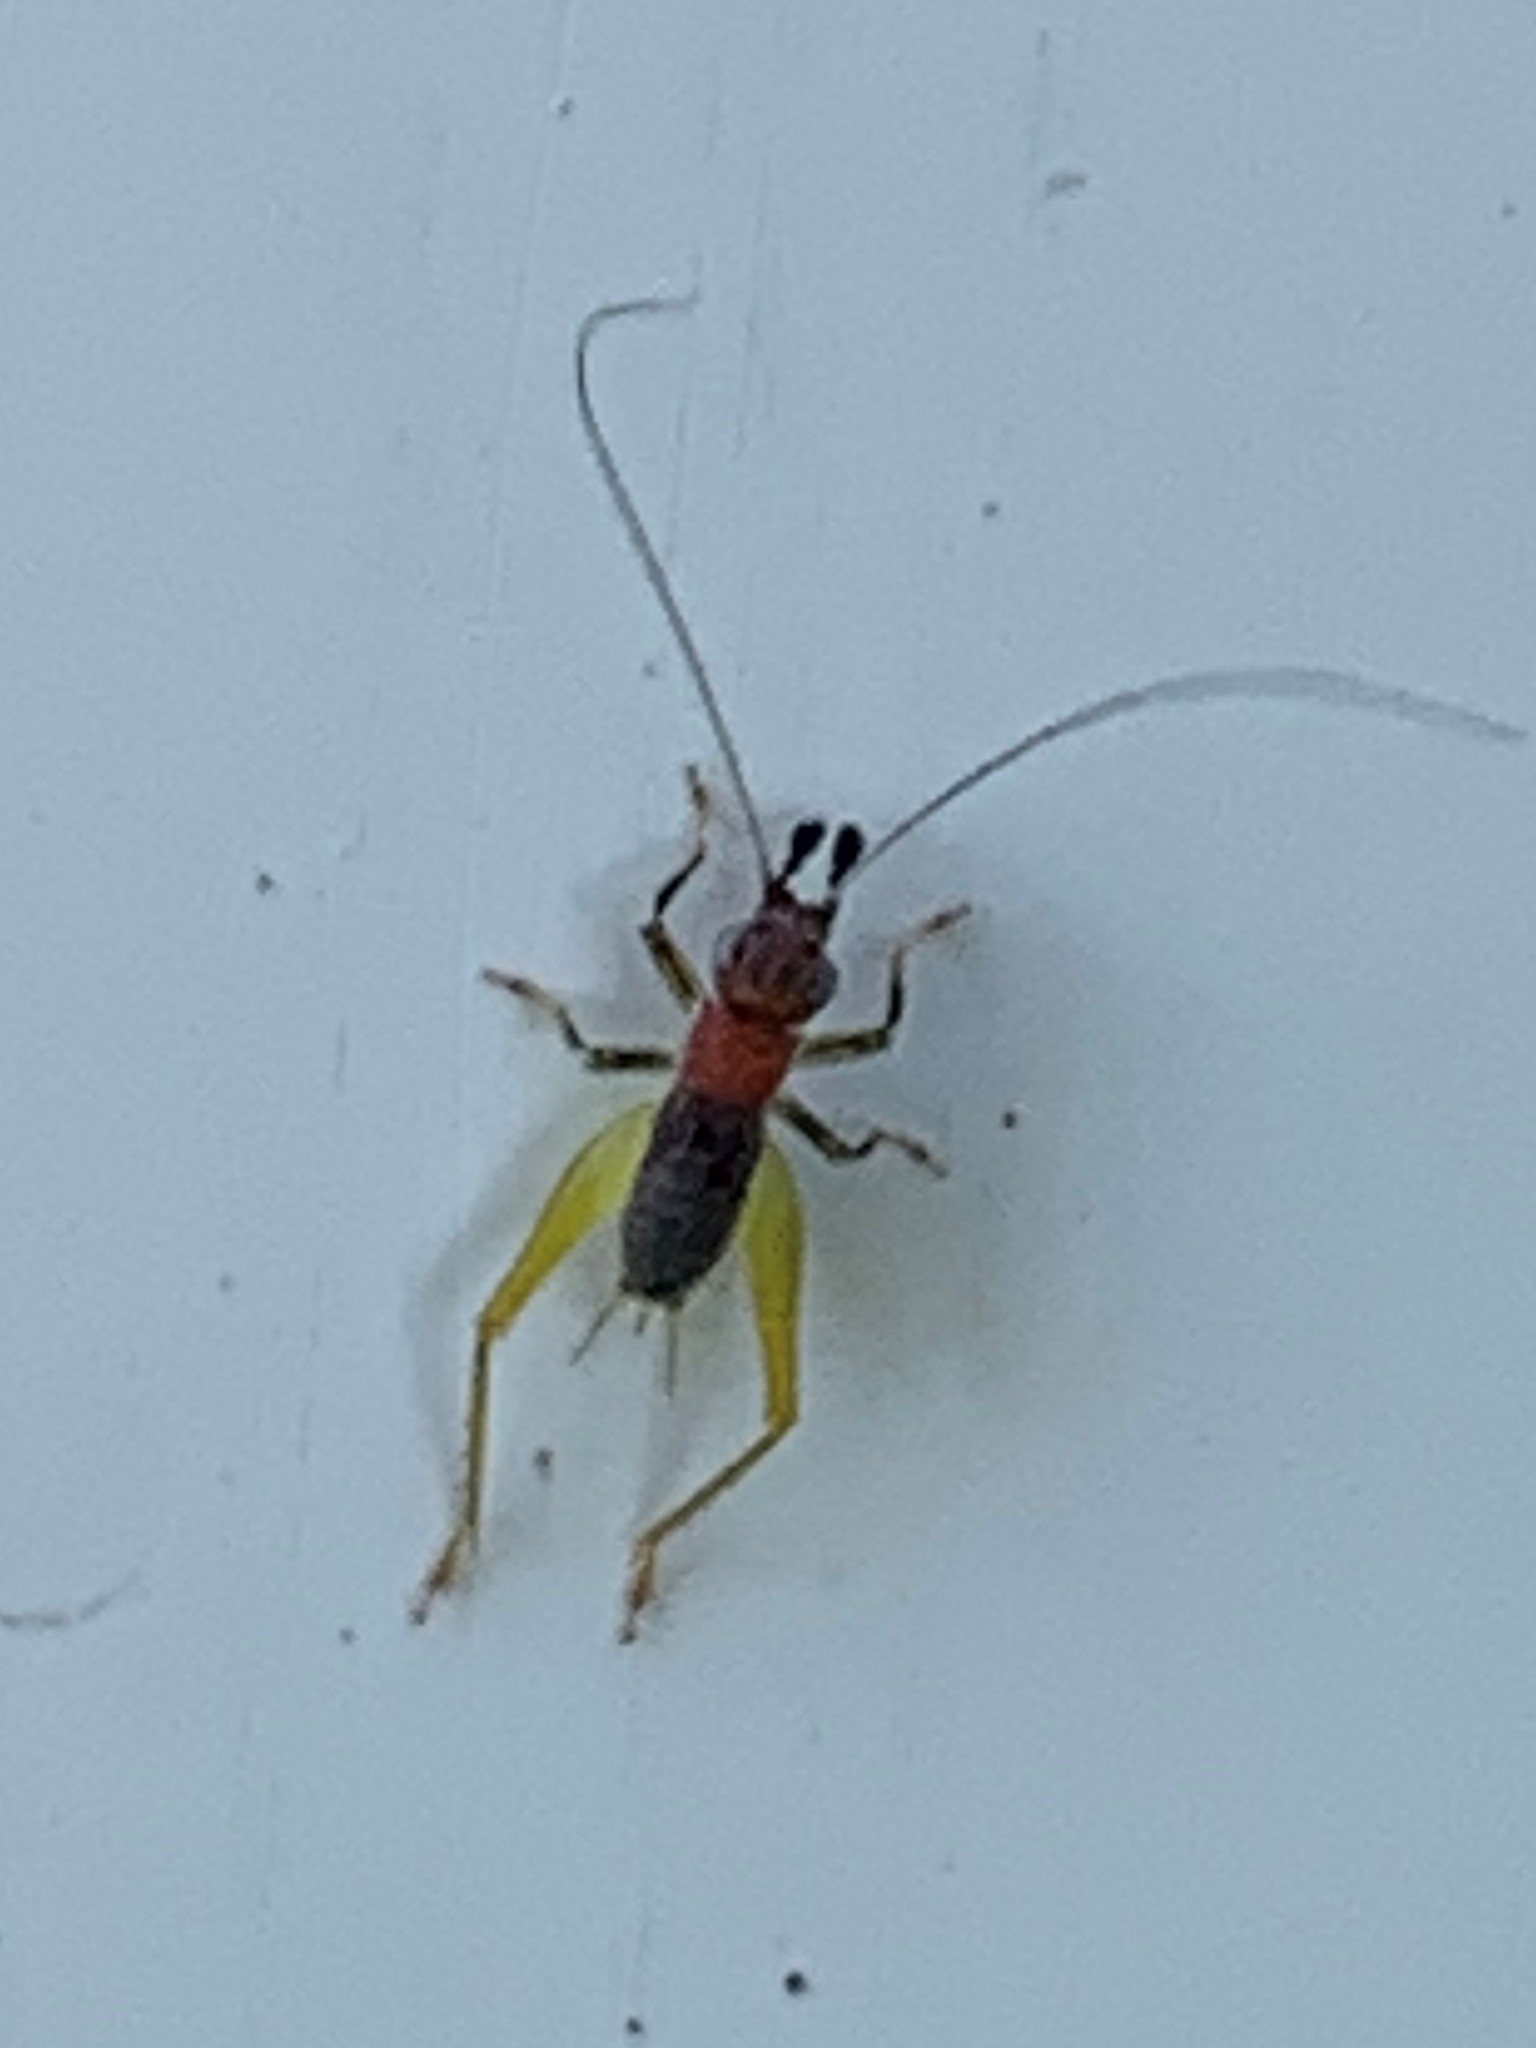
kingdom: Animalia
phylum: Arthropoda
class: Insecta
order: Orthoptera
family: Trigonidiidae
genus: Phyllopalpus
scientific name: Phyllopalpus pulchellus
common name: Handsome trig
